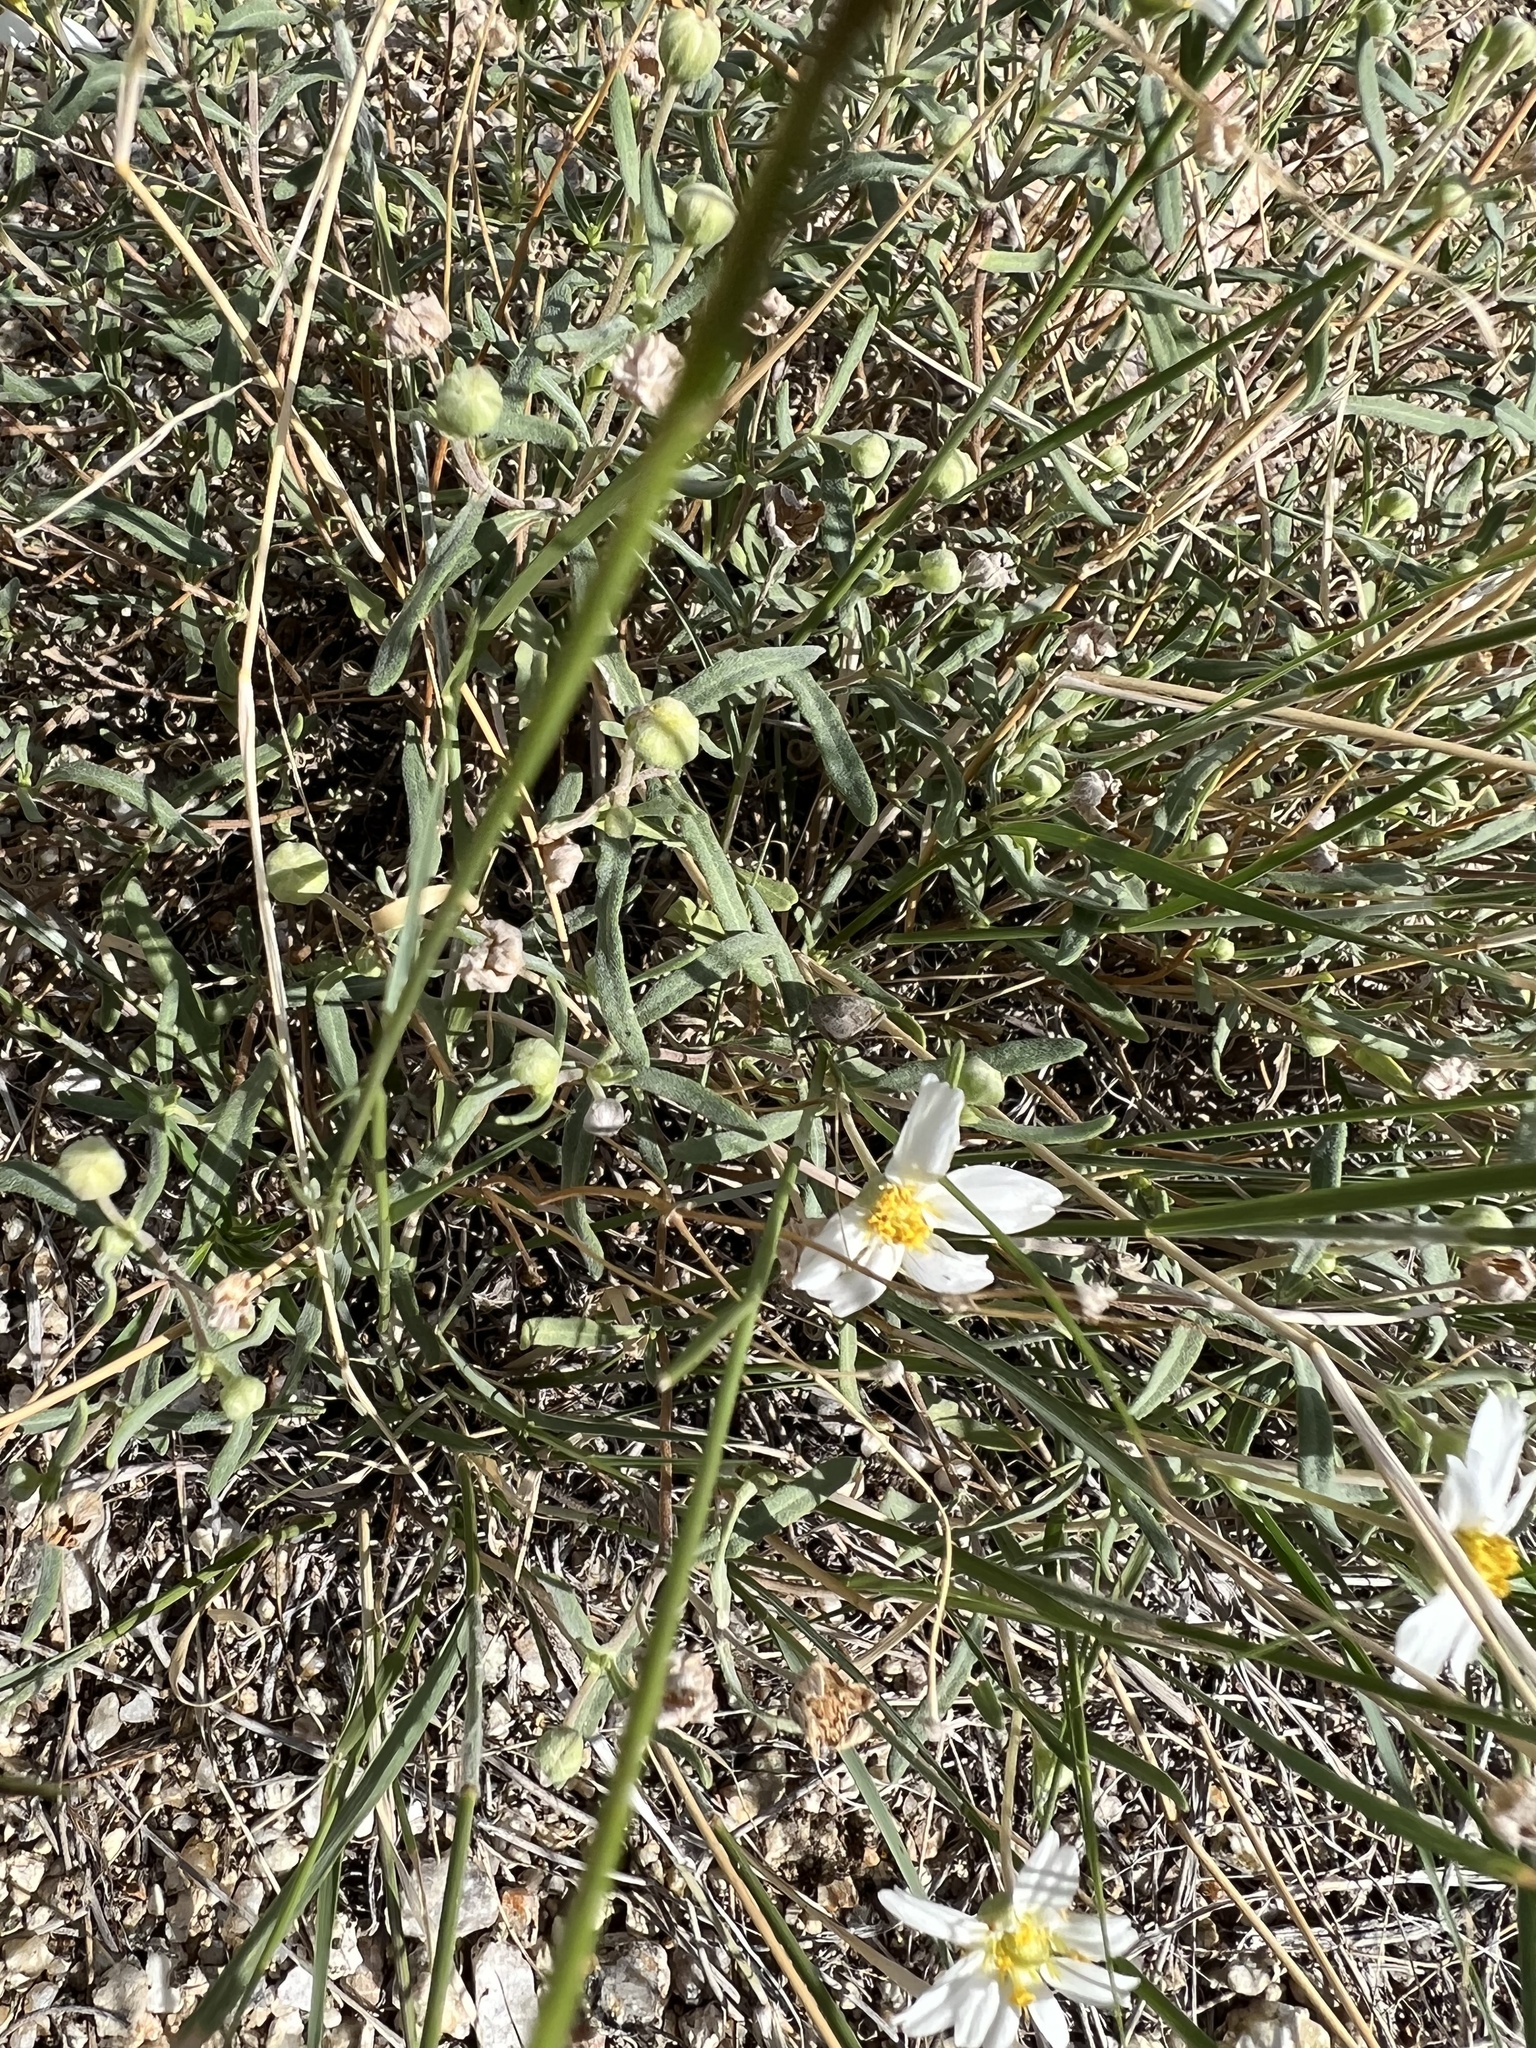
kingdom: Plantae
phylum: Tracheophyta
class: Magnoliopsida
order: Asterales
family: Asteraceae
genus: Melampodium
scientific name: Melampodium leucanthum
